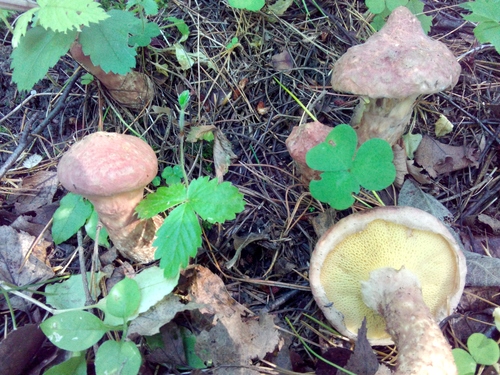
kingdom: Fungi
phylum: Basidiomycota
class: Agaricomycetes
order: Boletales
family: Suillaceae
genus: Suillus
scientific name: Suillus spraguei
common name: Painted suillus
